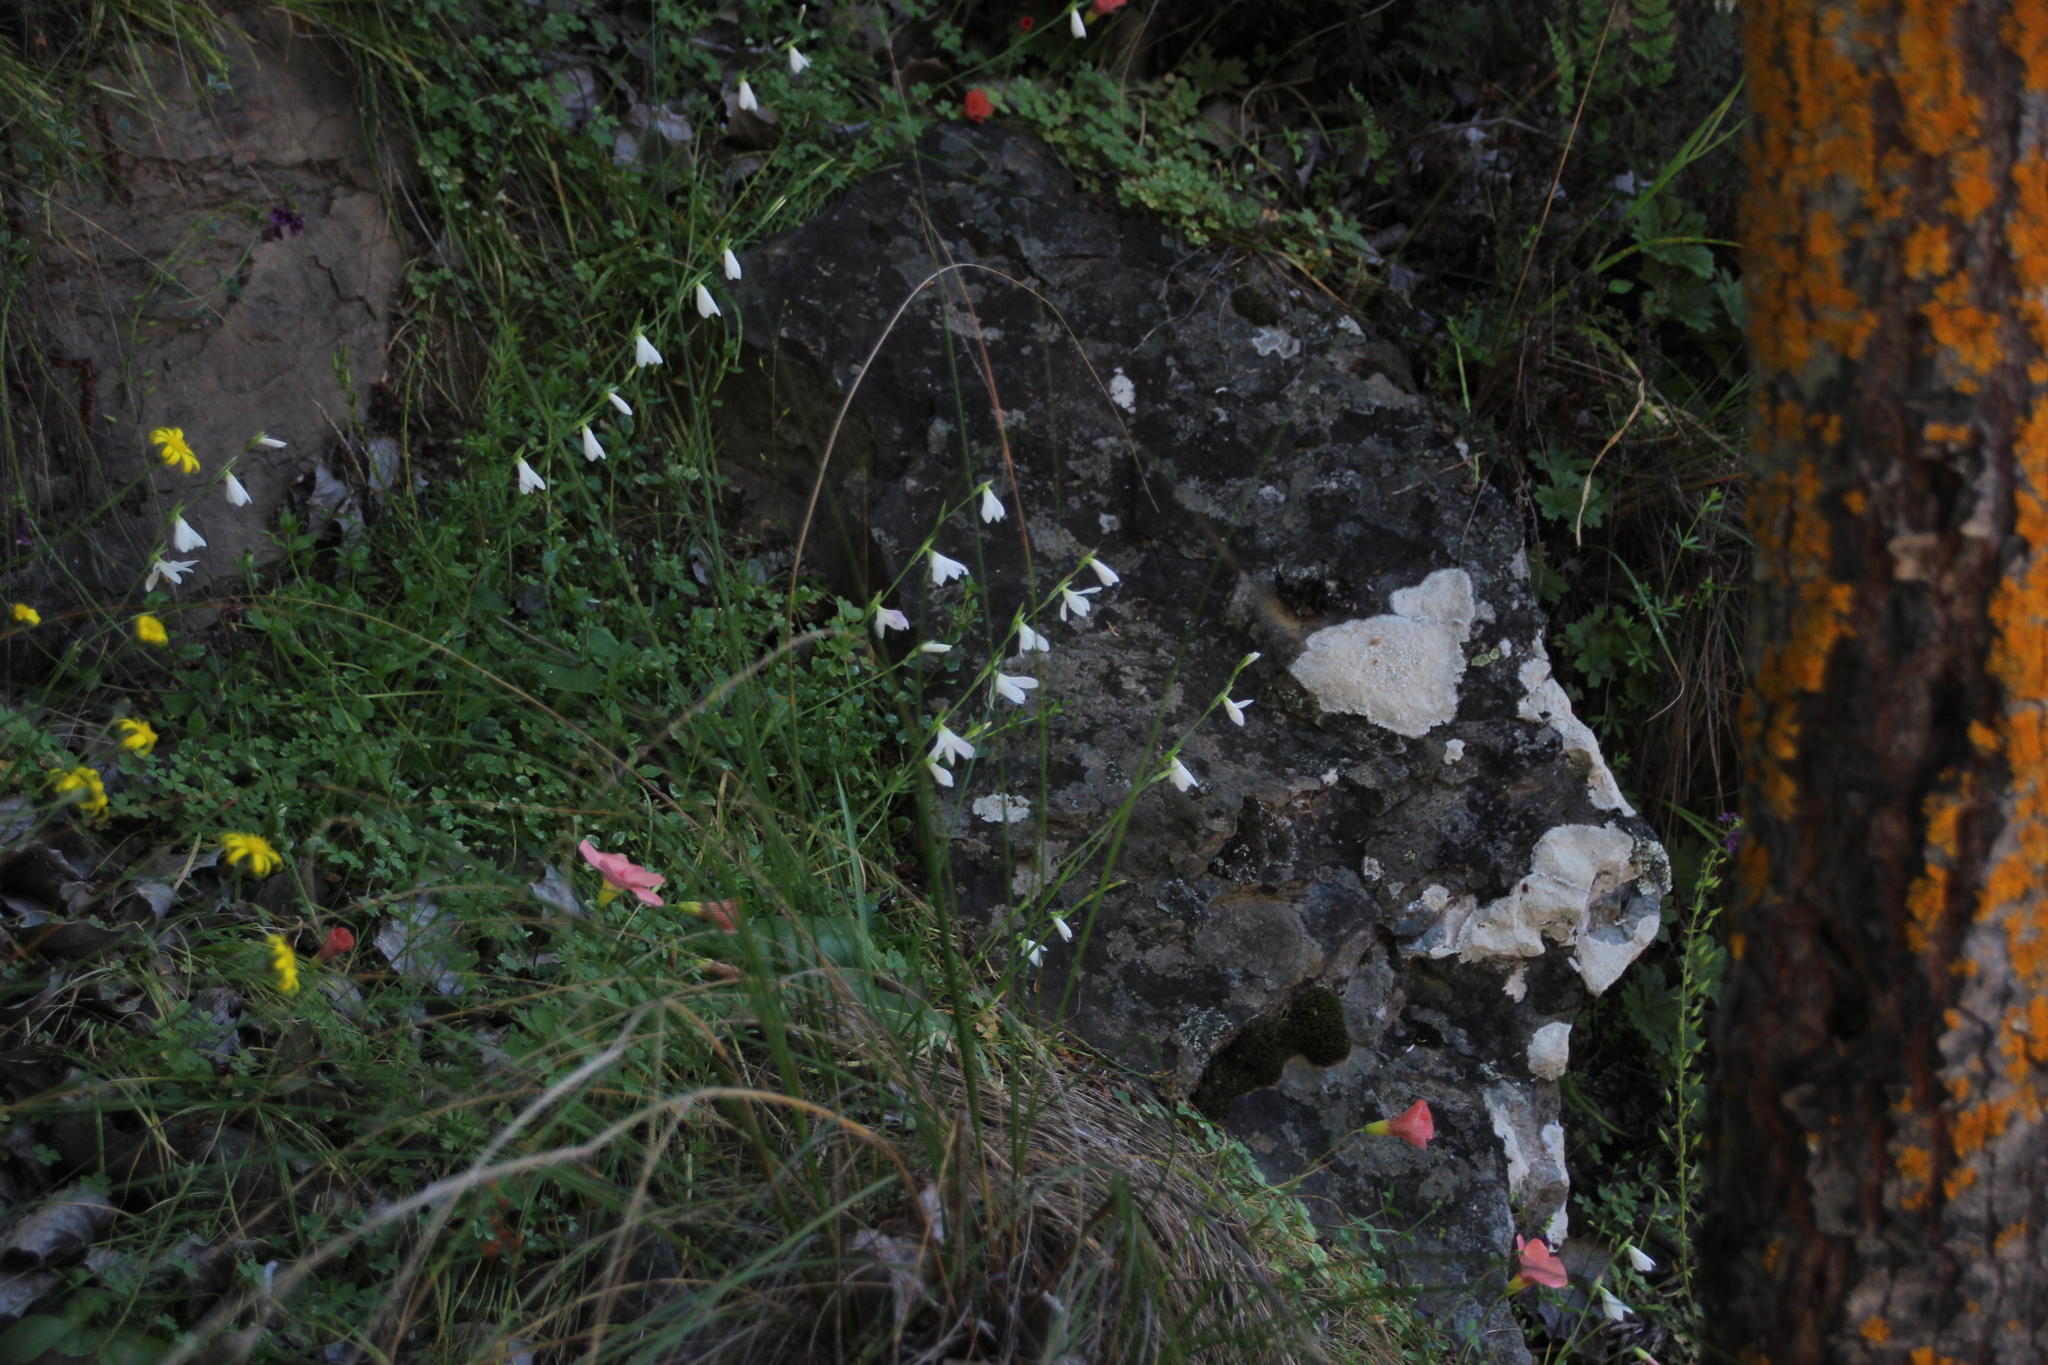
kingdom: Plantae
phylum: Tracheophyta
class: Liliopsida
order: Asparagales
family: Iridaceae
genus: Hesperantha
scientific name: Hesperantha radiata
